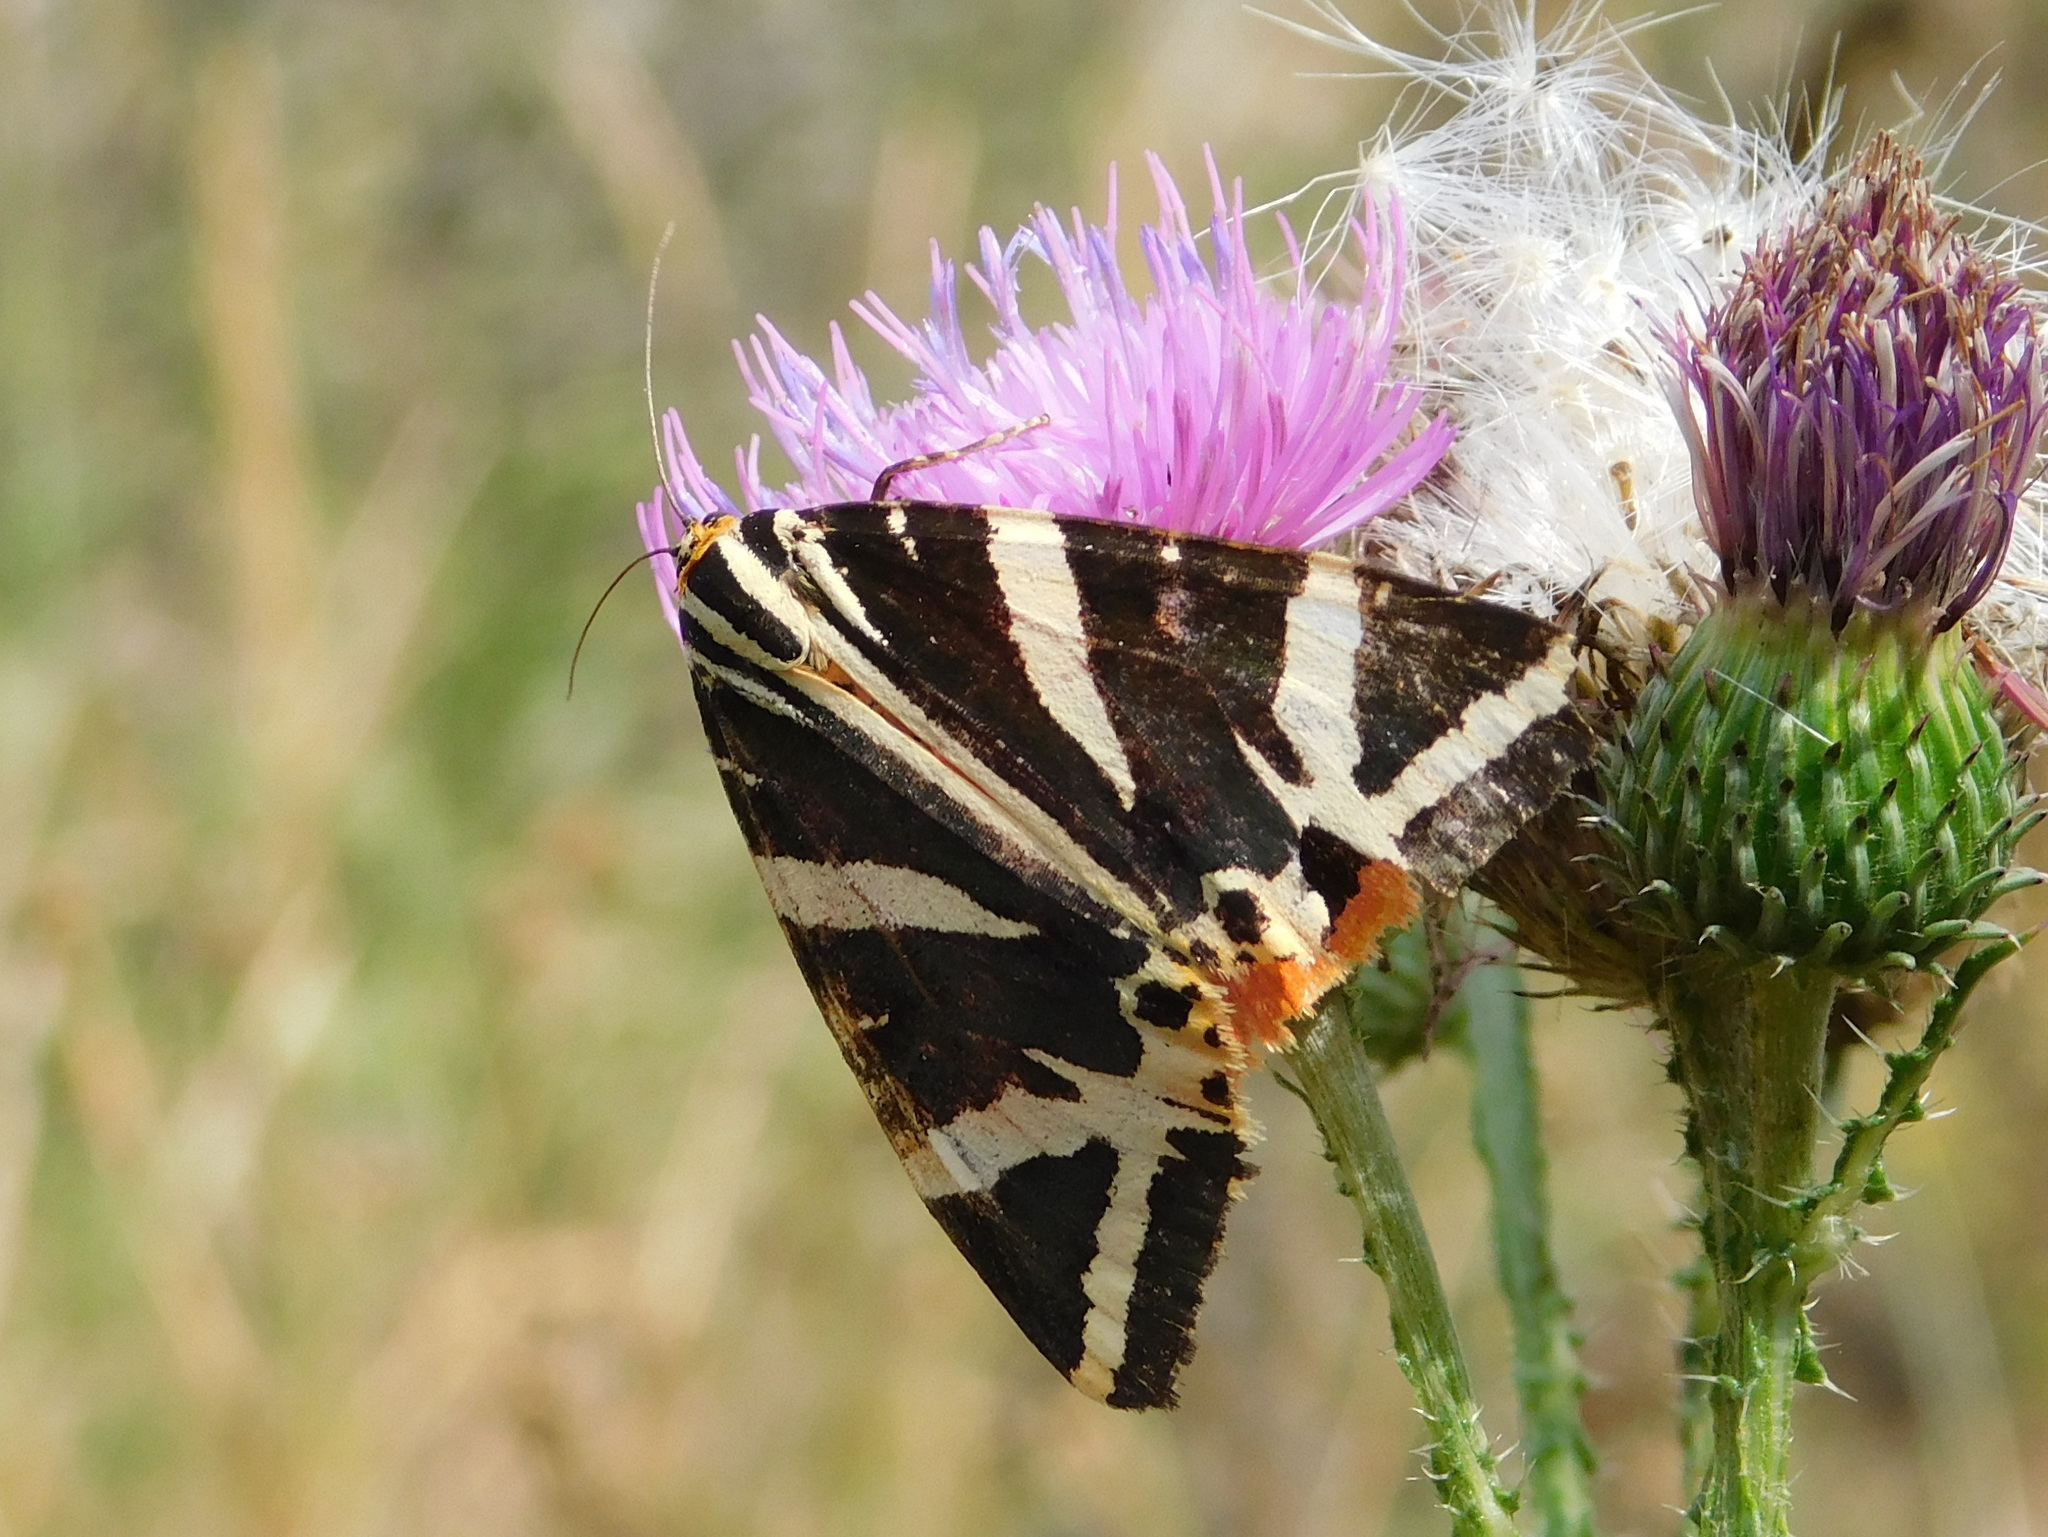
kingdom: Animalia
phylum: Arthropoda
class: Insecta
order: Lepidoptera
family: Erebidae
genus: Euplagia
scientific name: Euplagia quadripunctaria
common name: Jersey tiger
